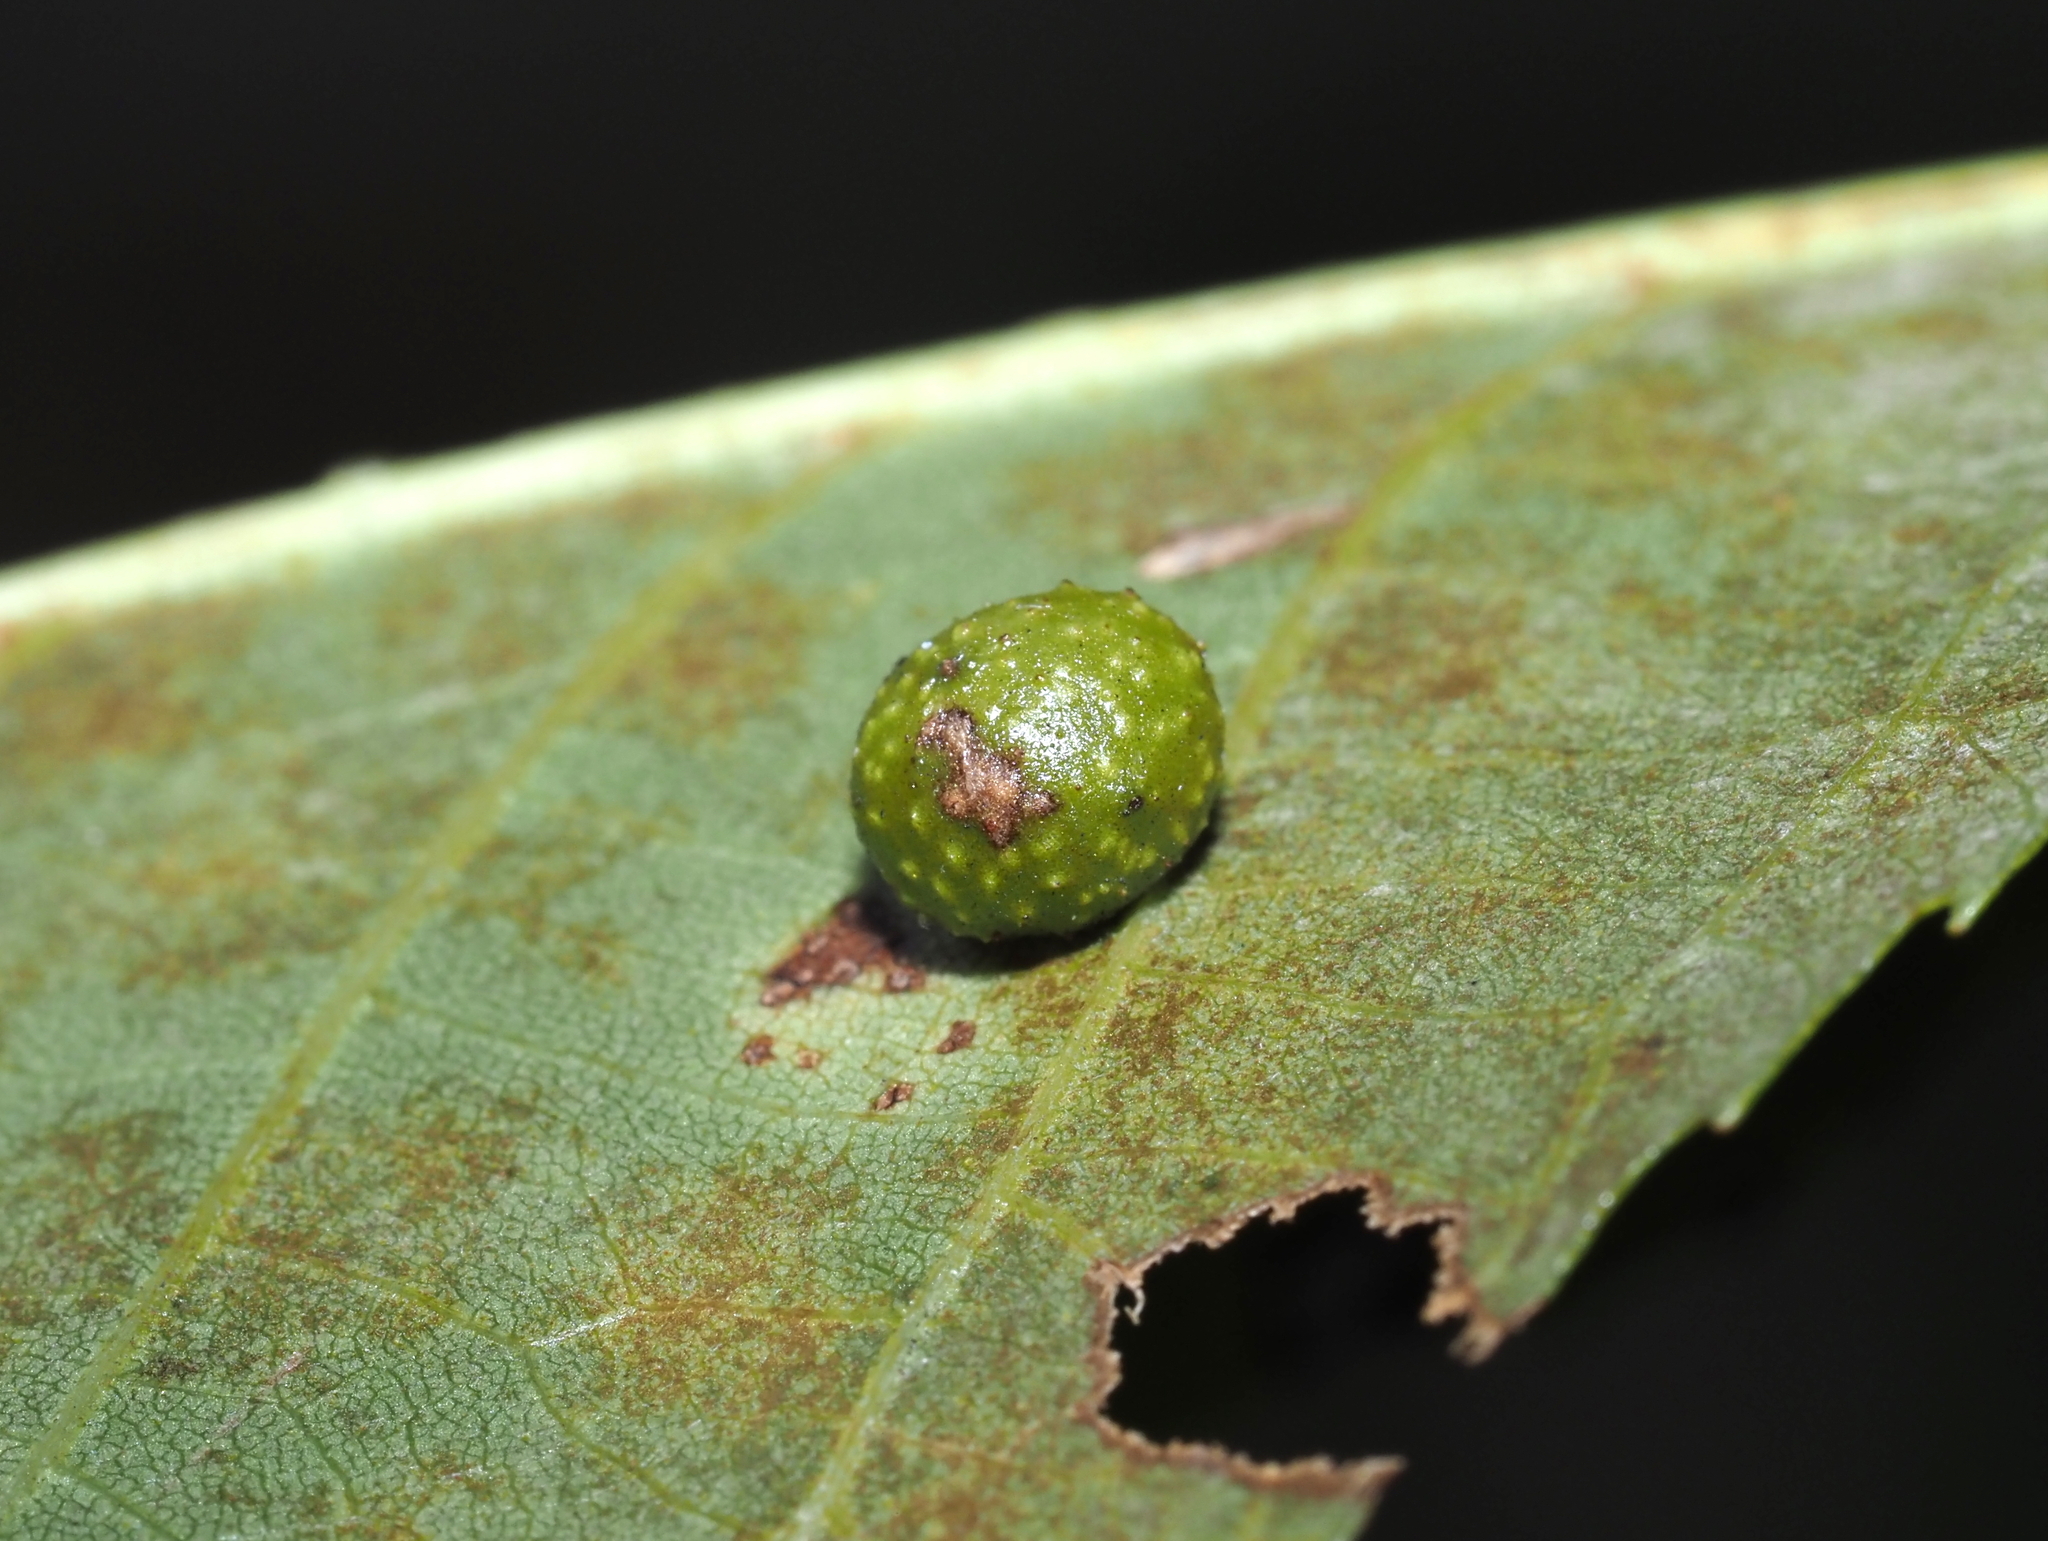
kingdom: Animalia
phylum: Arthropoda
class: Insecta
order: Diptera
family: Cecidomyiidae
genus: Caryomyia
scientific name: Caryomyia tuberculata
